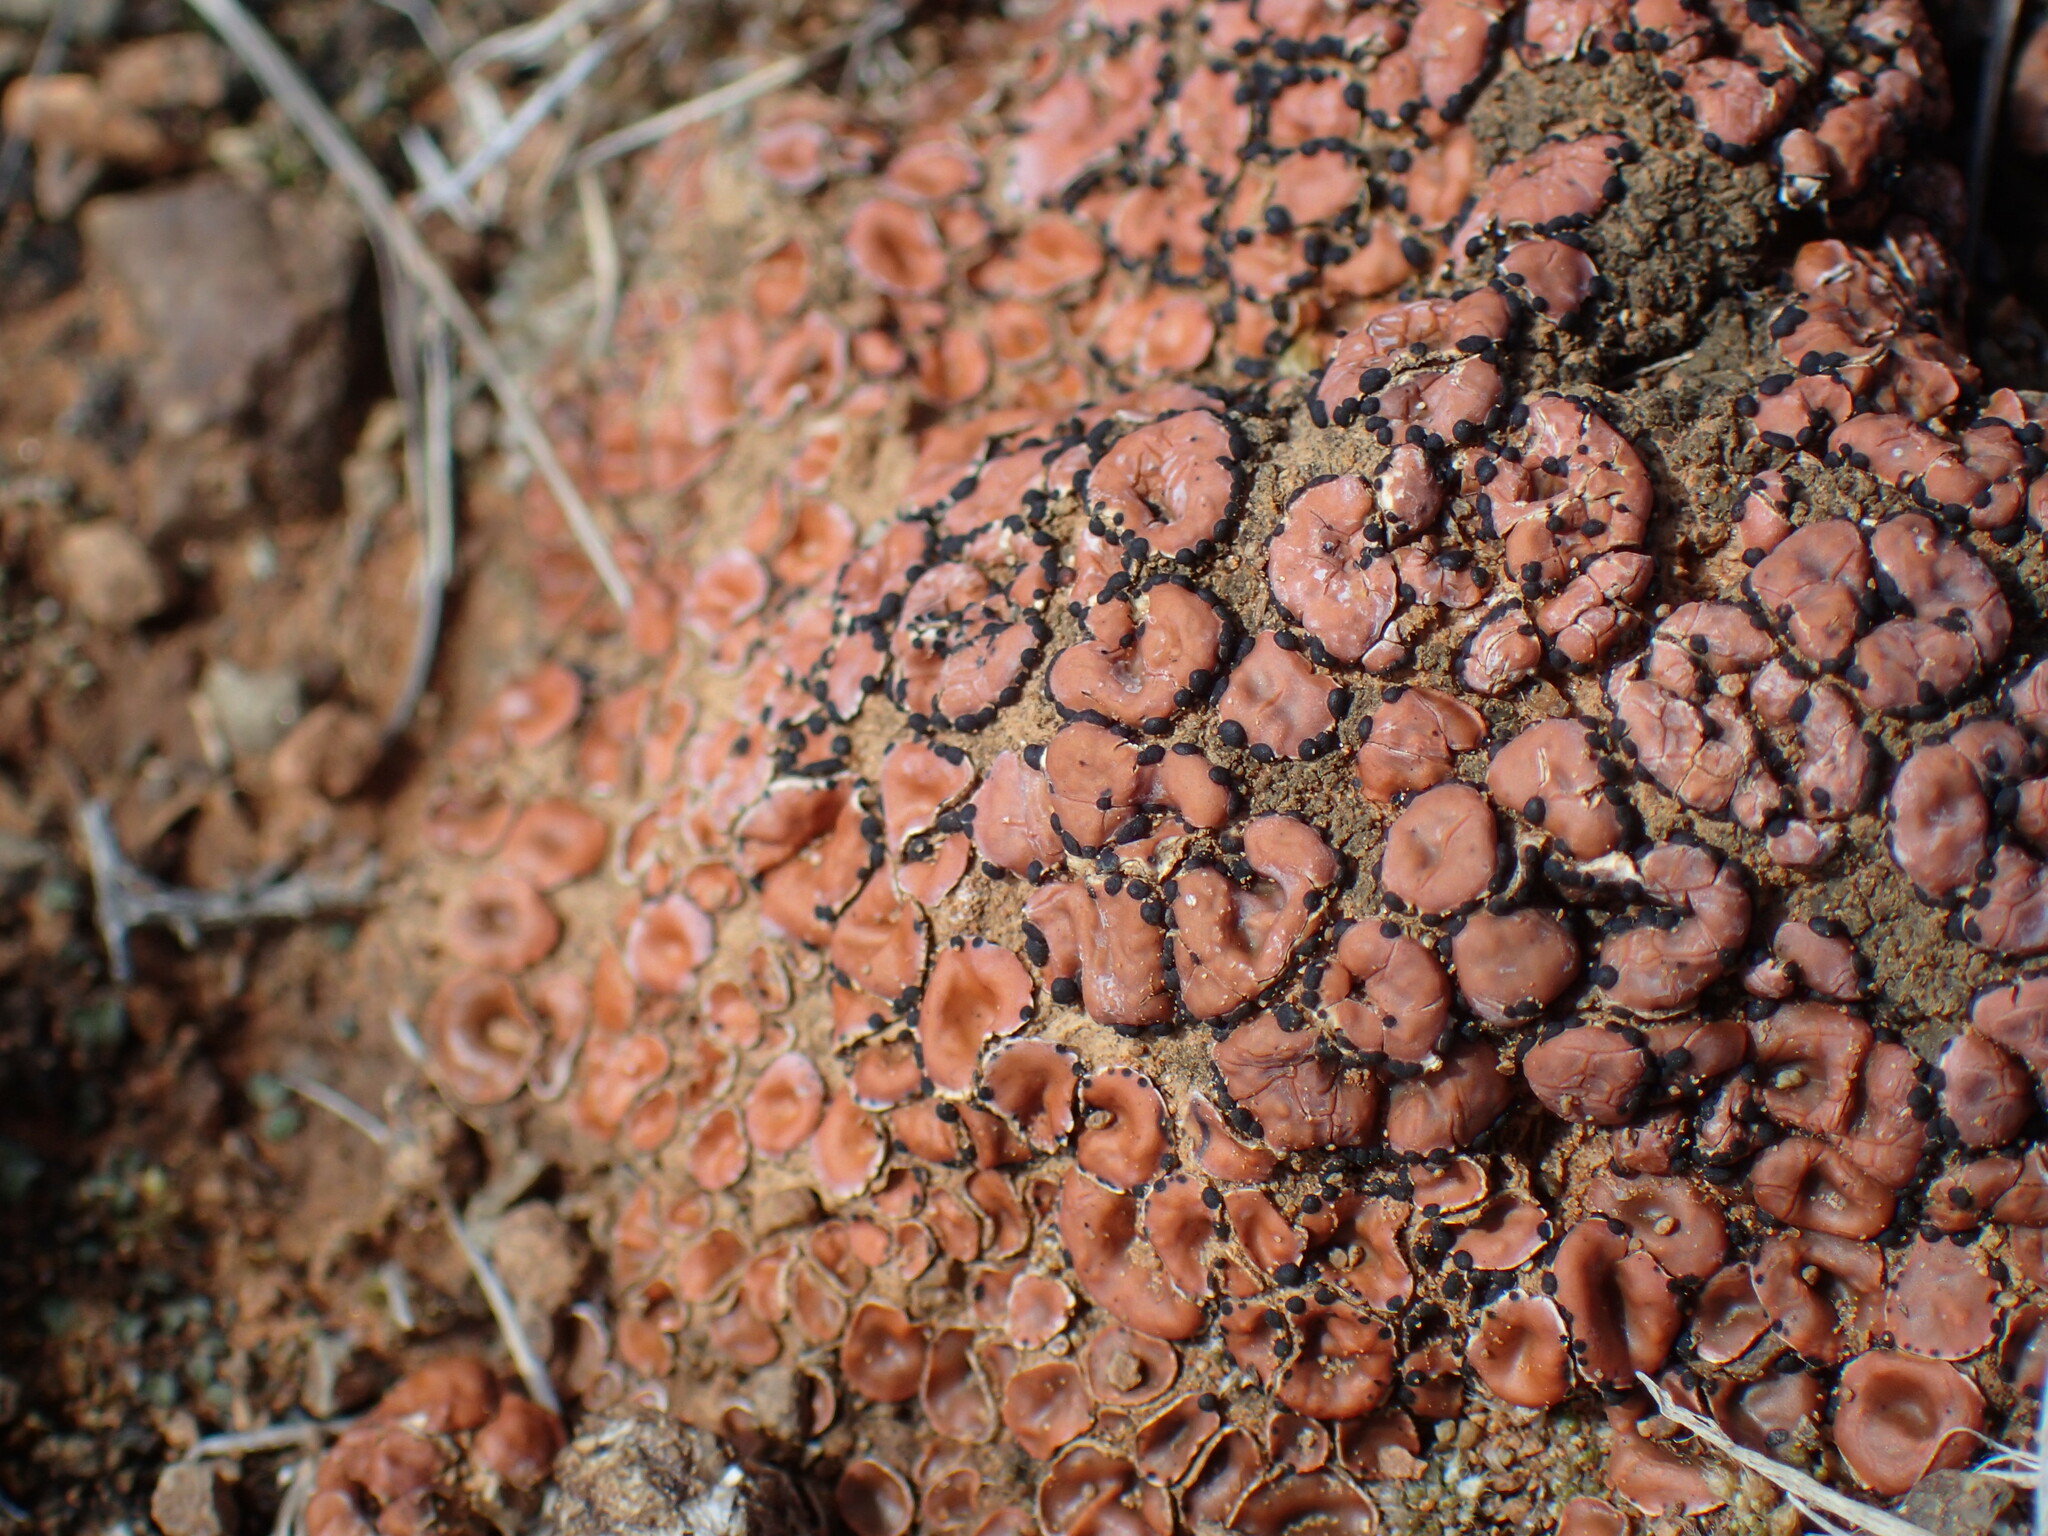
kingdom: Fungi
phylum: Ascomycota
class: Lecanoromycetes
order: Lecanorales
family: Psoraceae
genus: Psora
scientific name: Psora crenata
